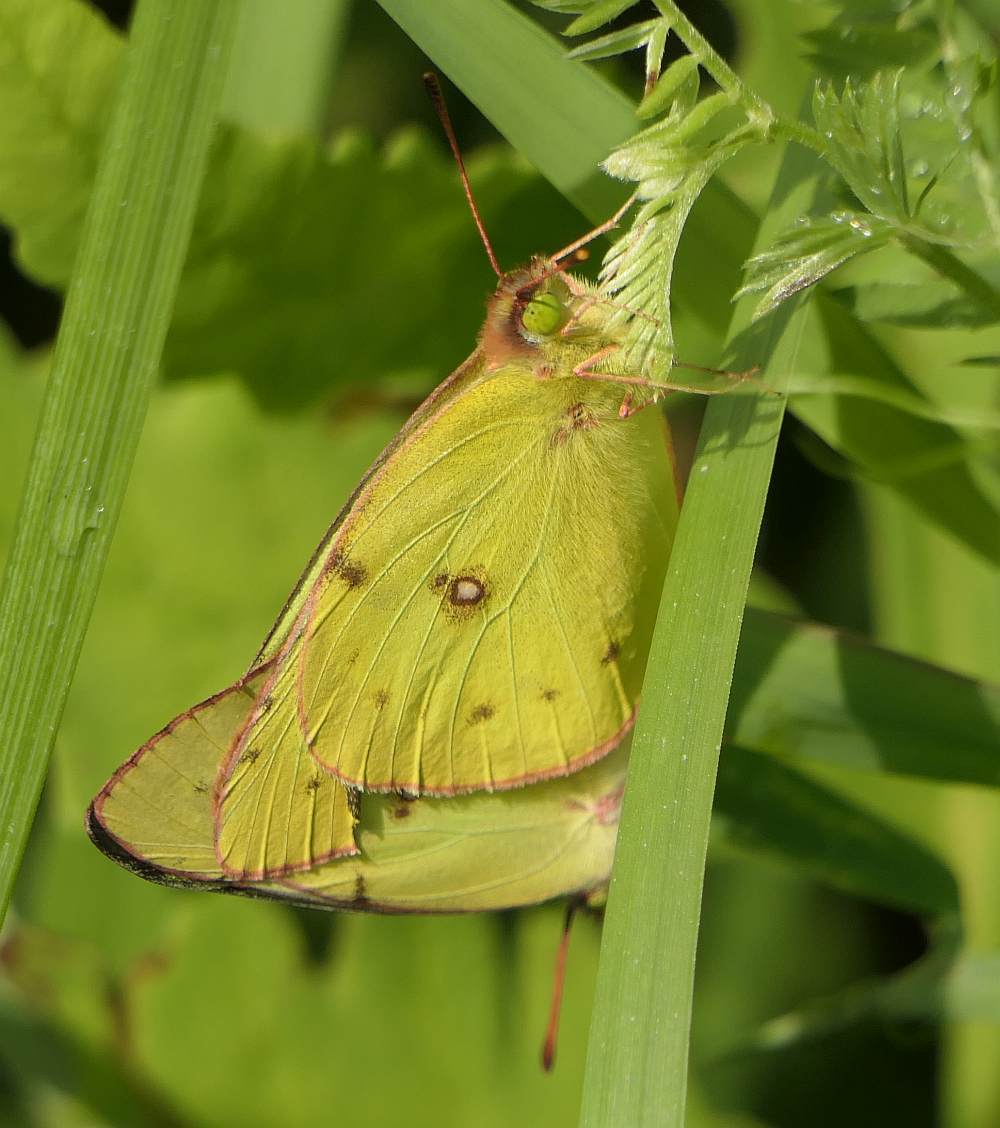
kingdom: Animalia
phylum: Arthropoda
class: Insecta
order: Lepidoptera
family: Pieridae
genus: Colias
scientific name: Colias philodice
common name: Clouded sulphur
